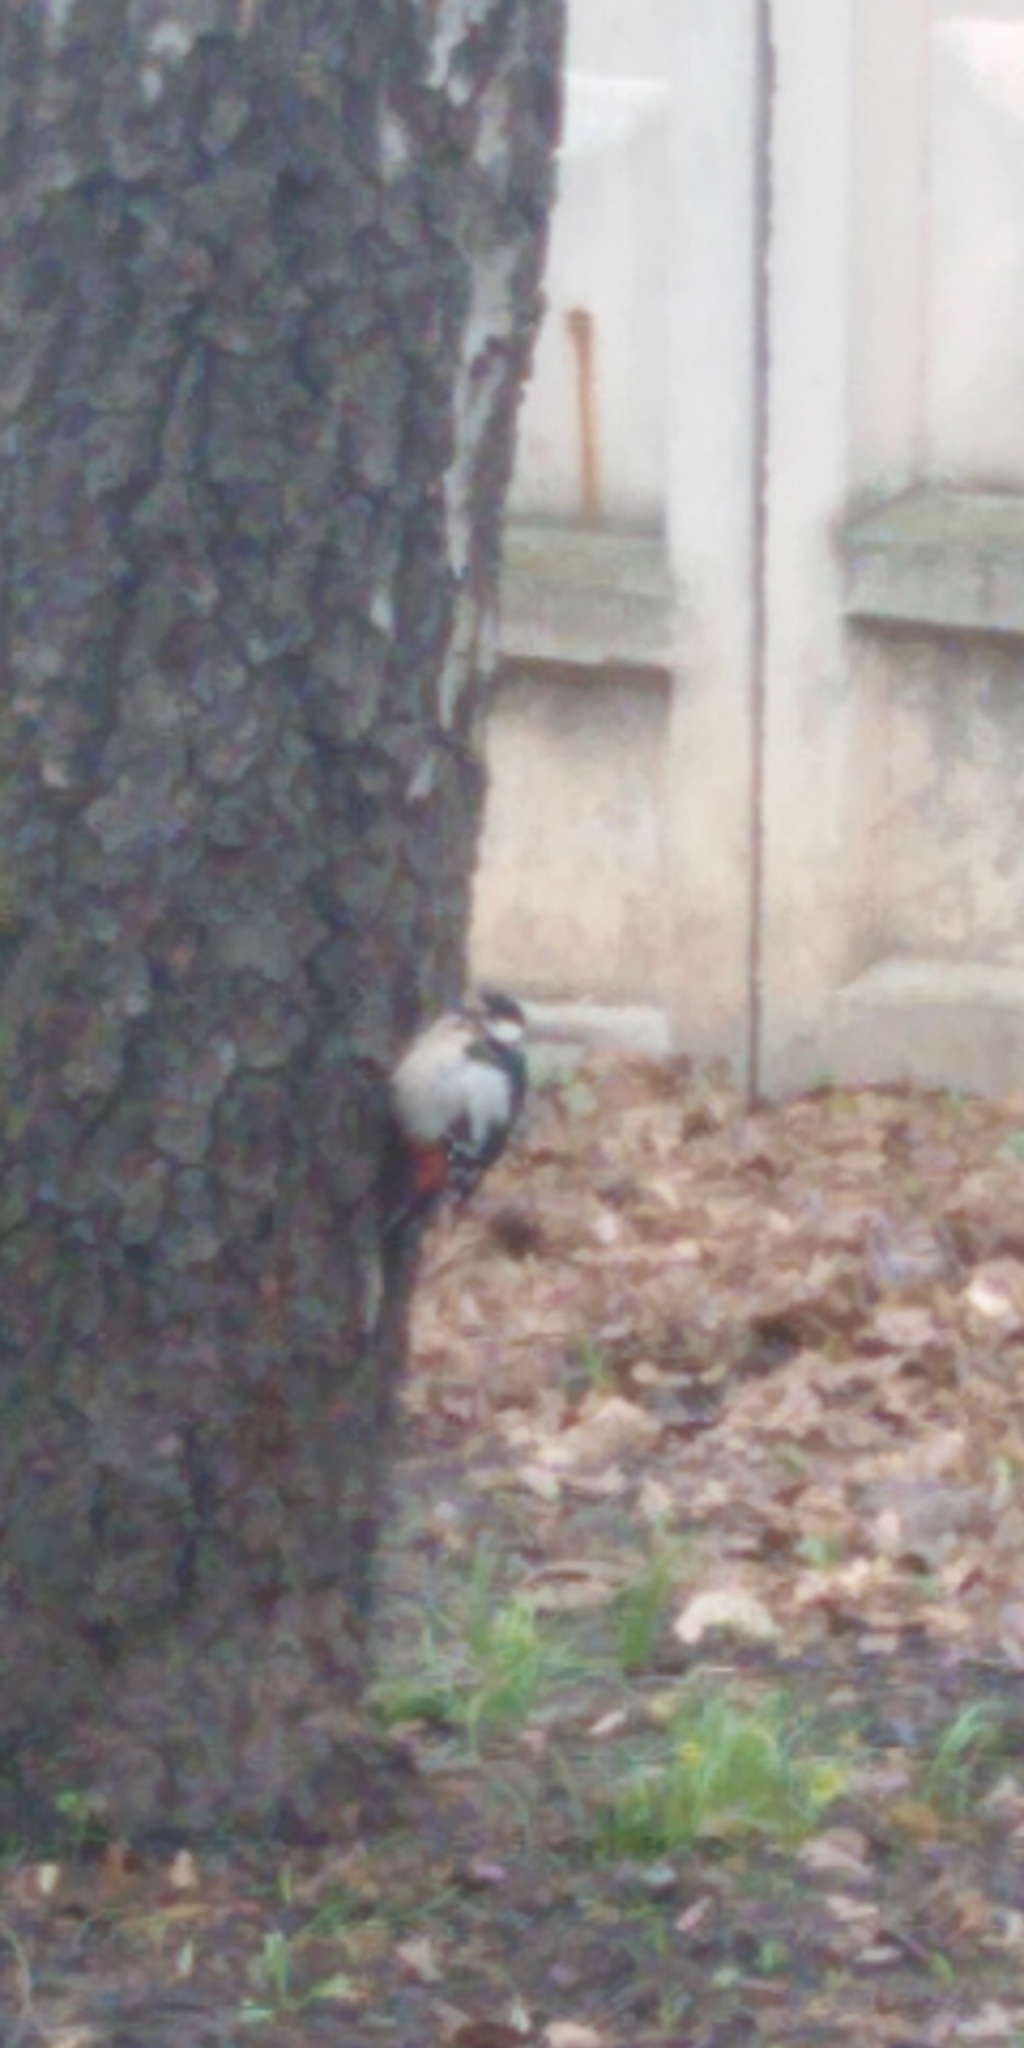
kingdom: Animalia
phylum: Chordata
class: Aves
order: Piciformes
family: Picidae
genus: Dendrocopos
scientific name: Dendrocopos major
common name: Great spotted woodpecker
